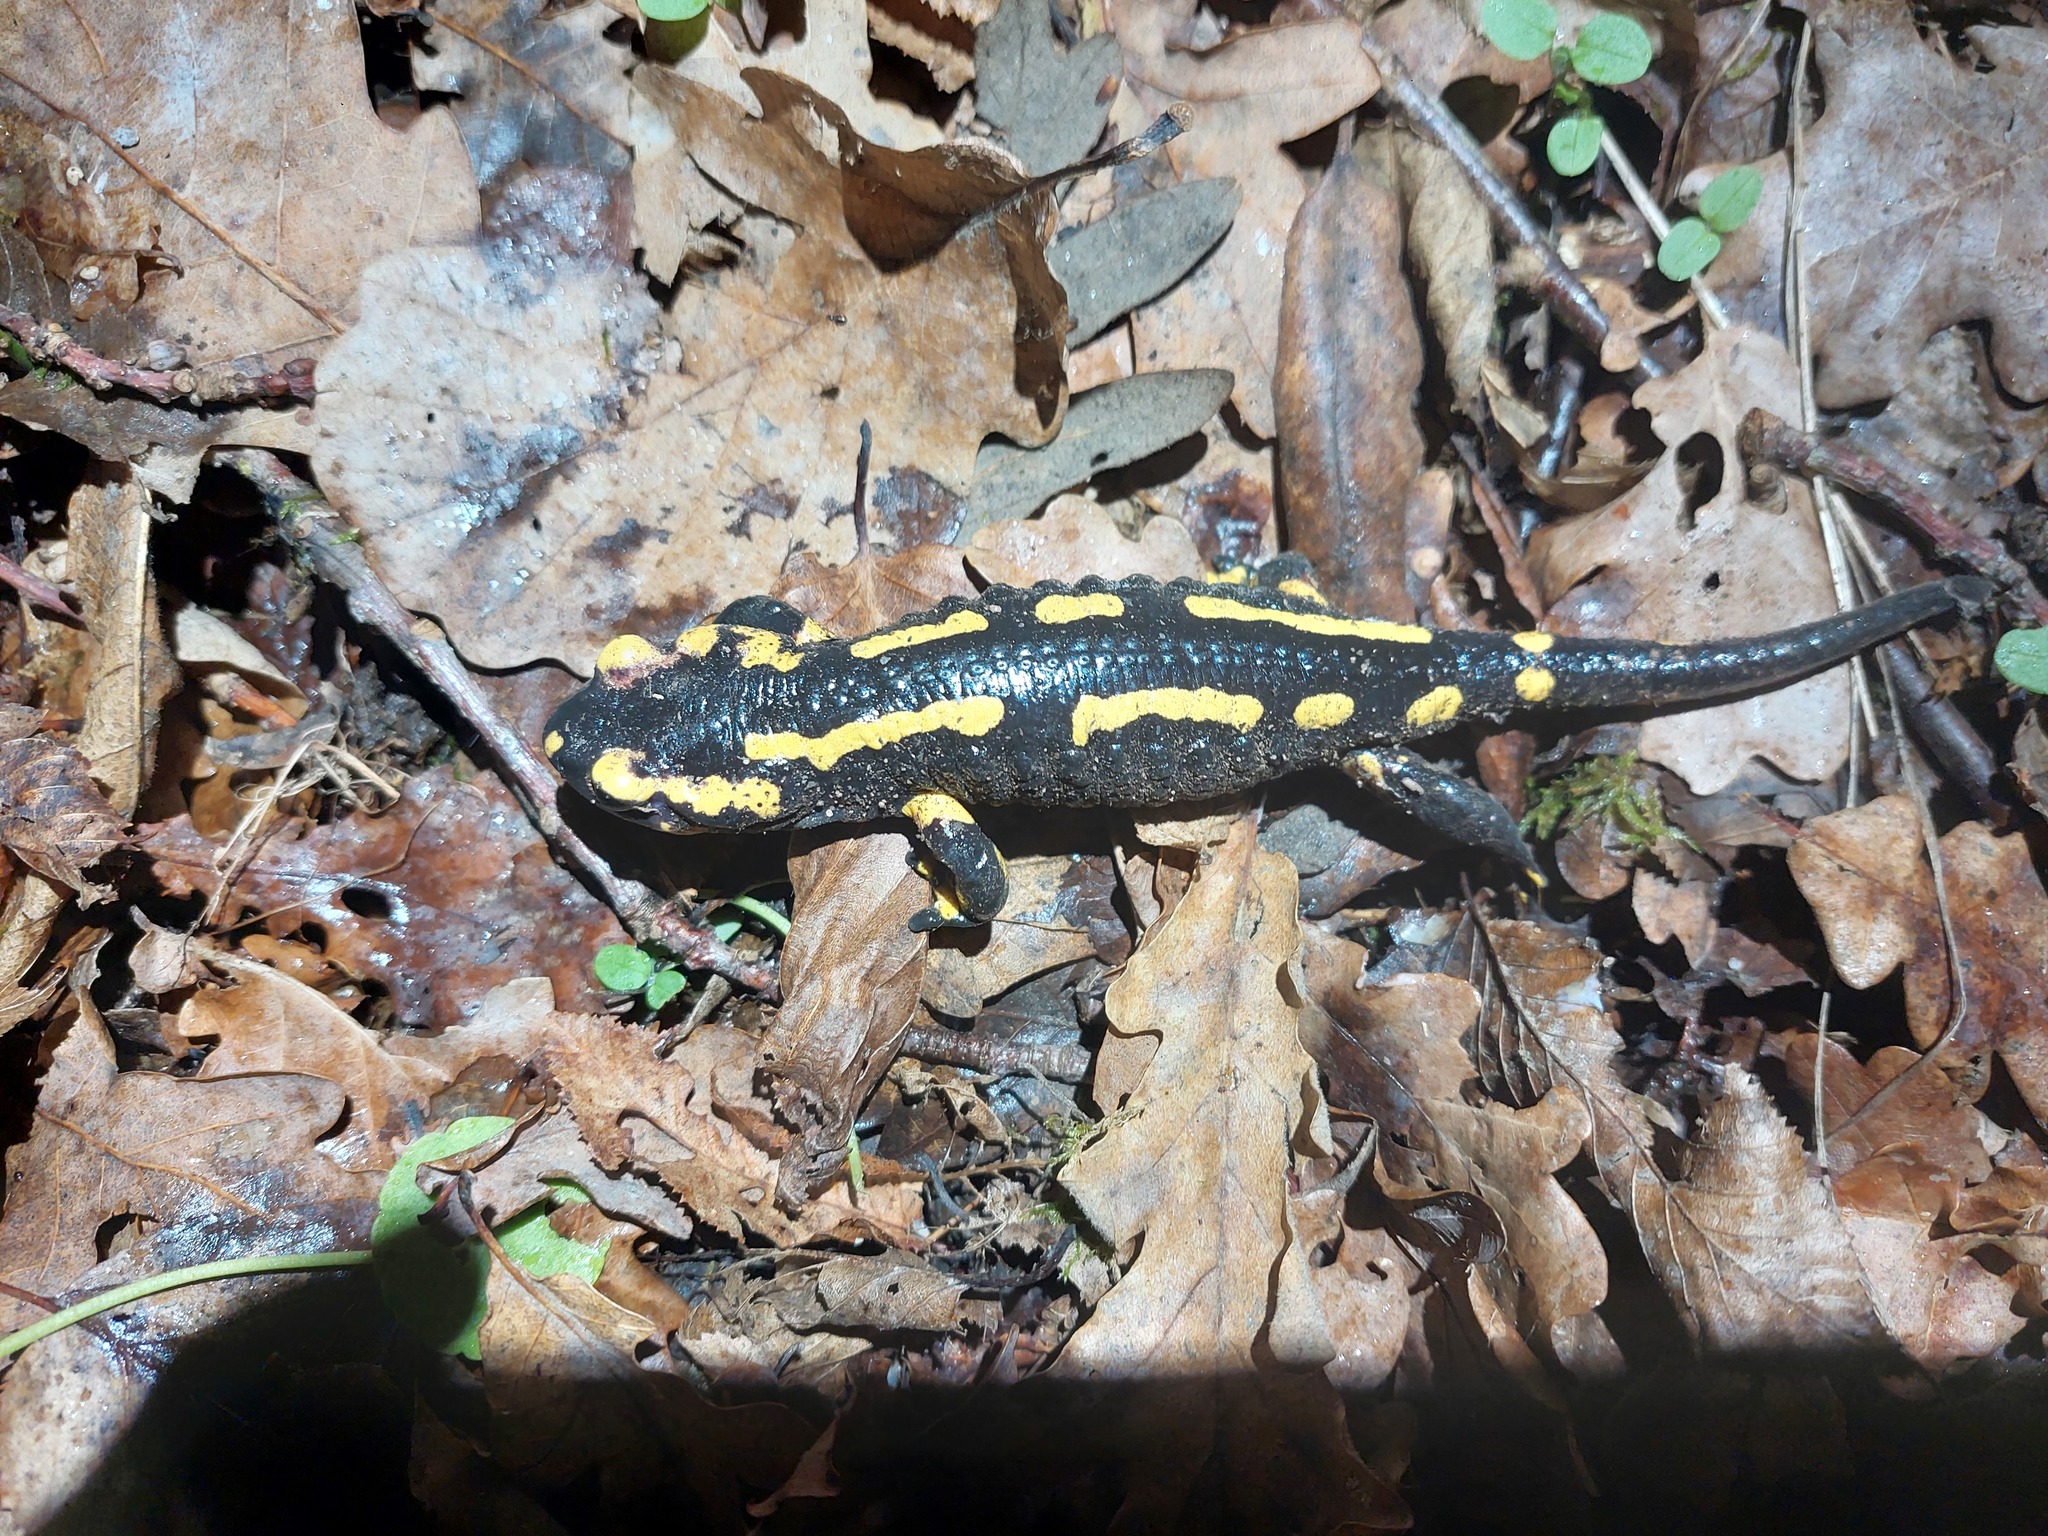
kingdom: Animalia
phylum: Chordata
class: Amphibia
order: Caudata
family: Salamandridae
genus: Salamandra
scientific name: Salamandra salamandra
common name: Fire salamander
